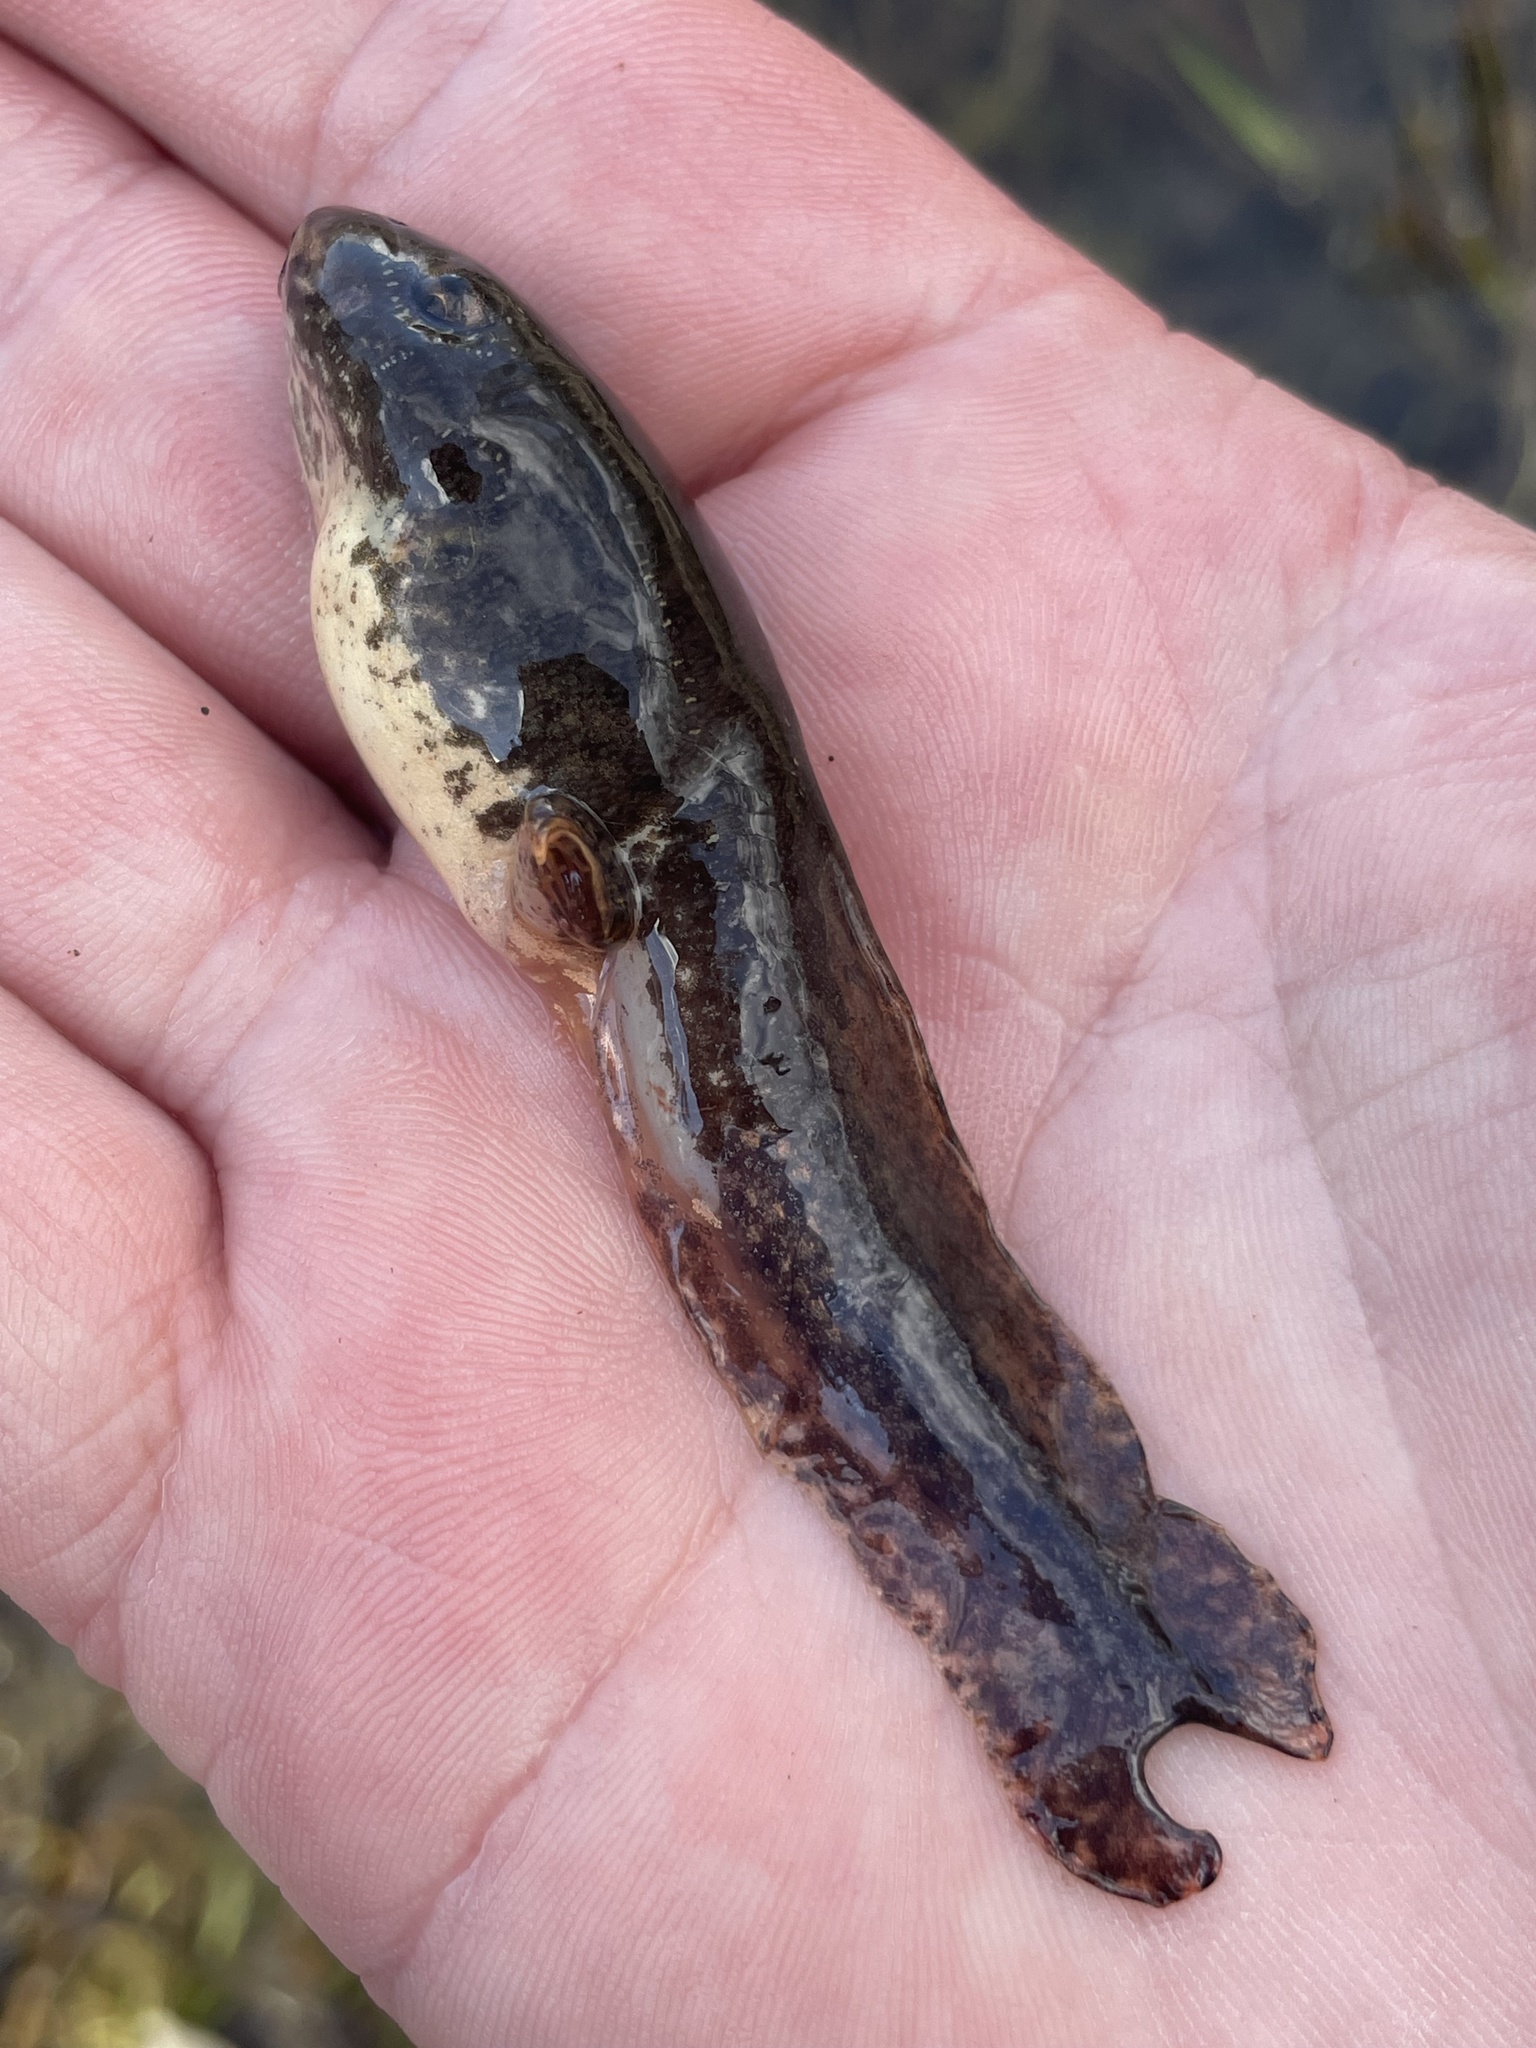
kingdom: Animalia
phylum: Chordata
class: Amphibia
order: Anura
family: Ranidae
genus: Lithobates
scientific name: Lithobates clamitans
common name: Green frog
